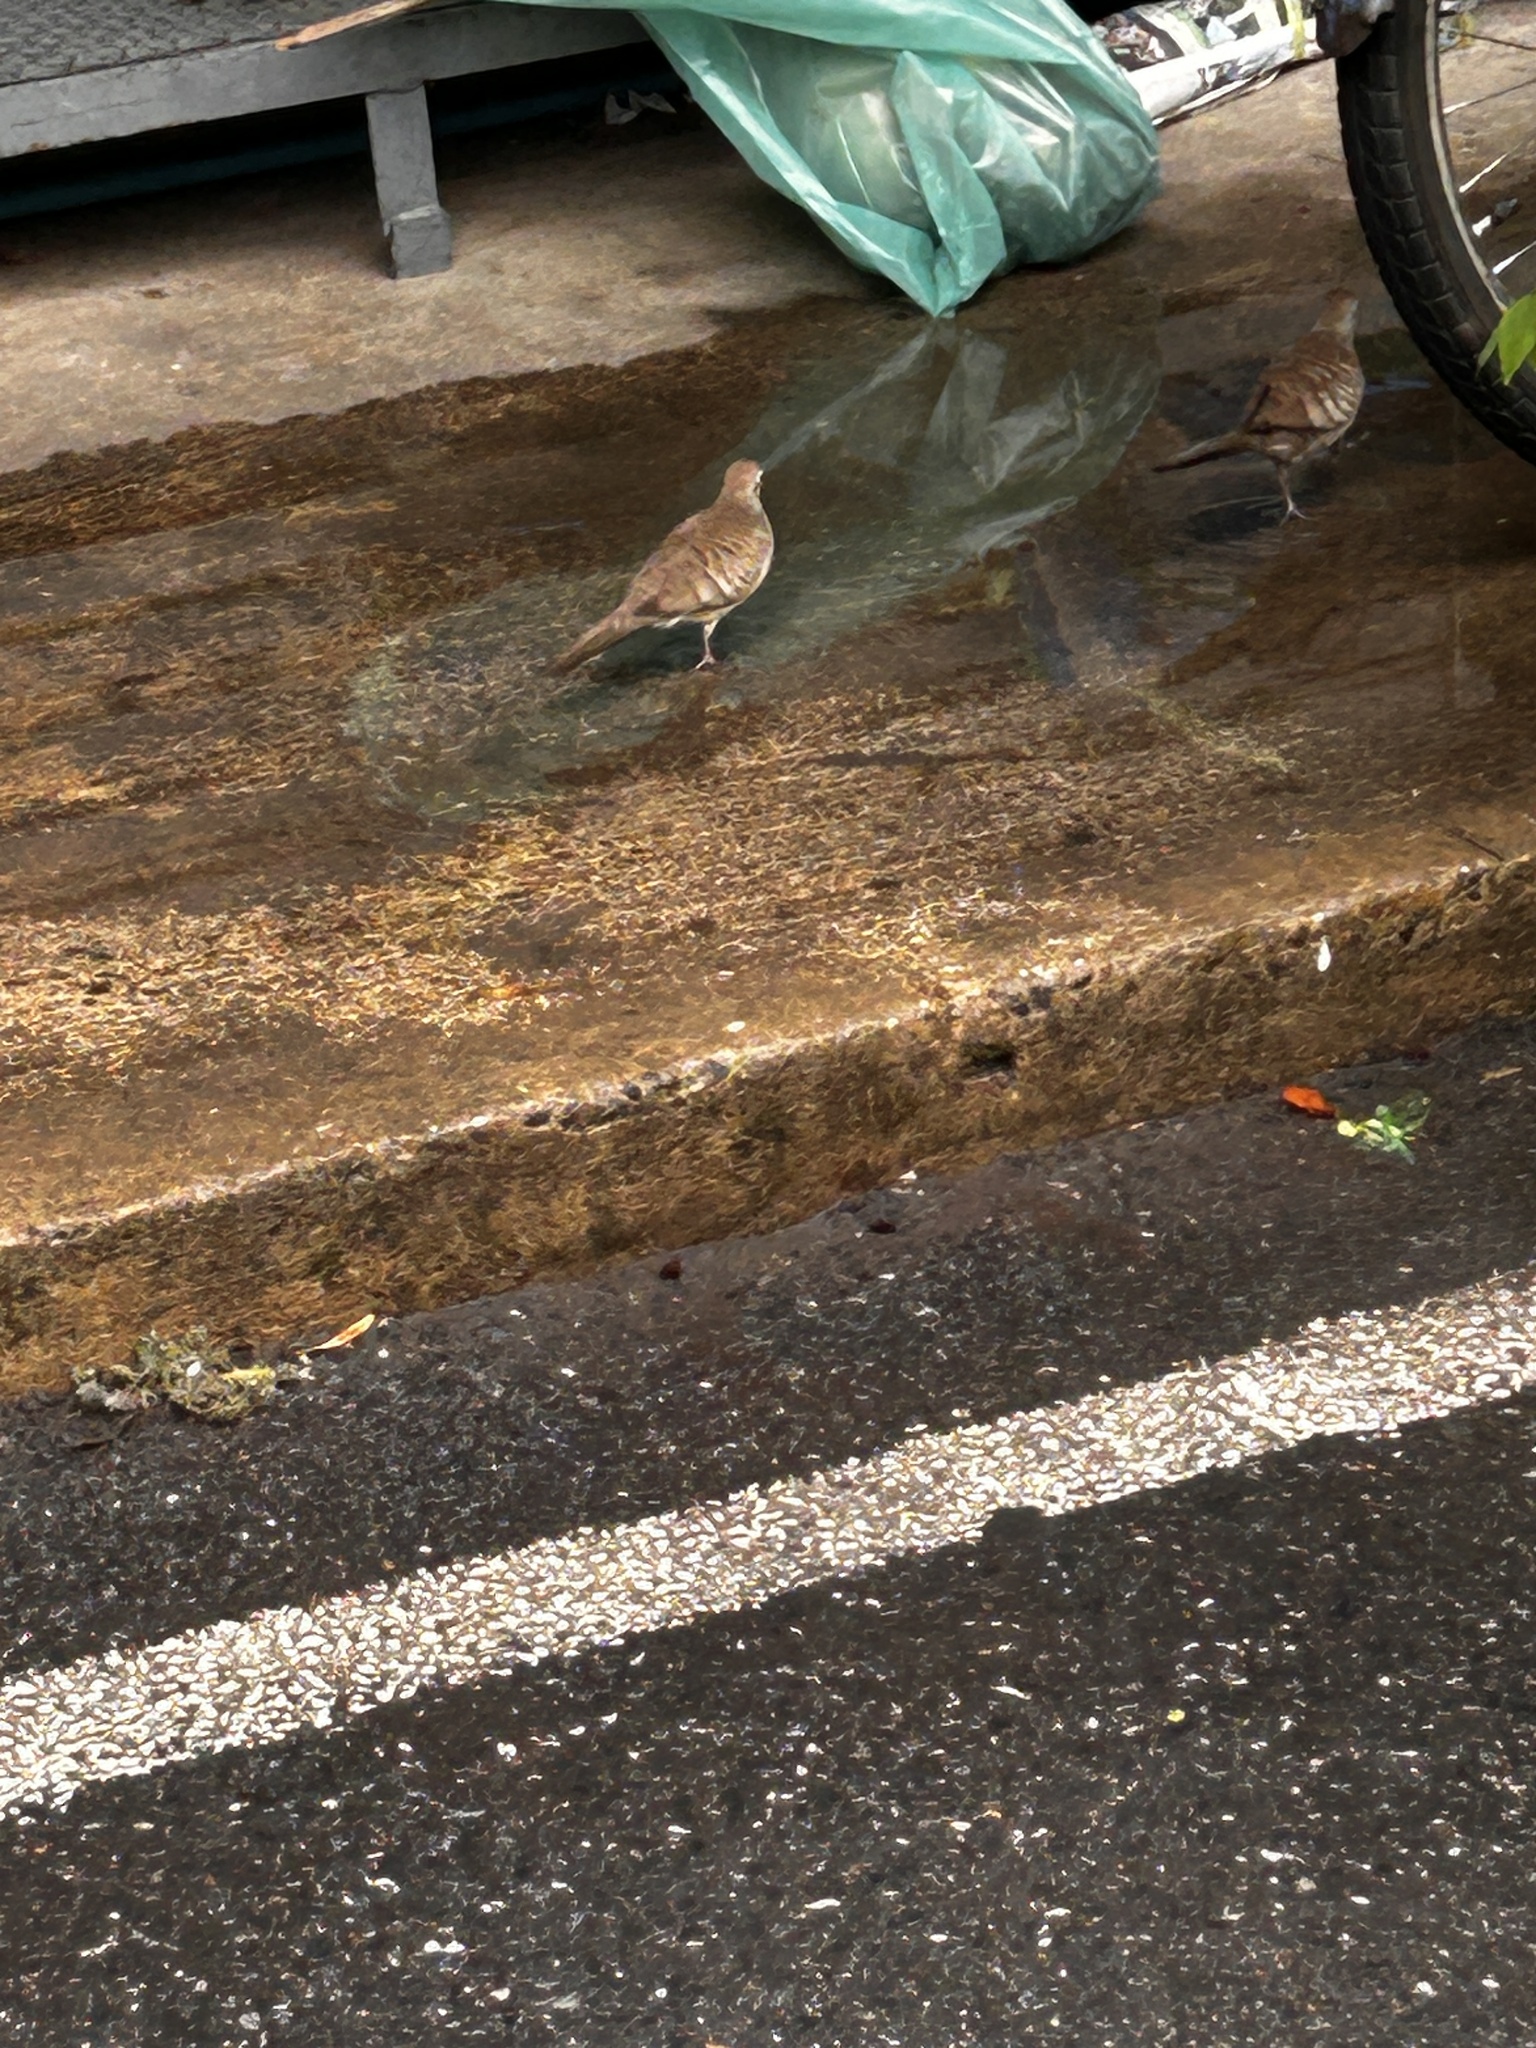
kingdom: Animalia
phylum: Chordata
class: Aves
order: Columbiformes
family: Columbidae
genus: Geopelia
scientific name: Geopelia striata
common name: Zebra dove
